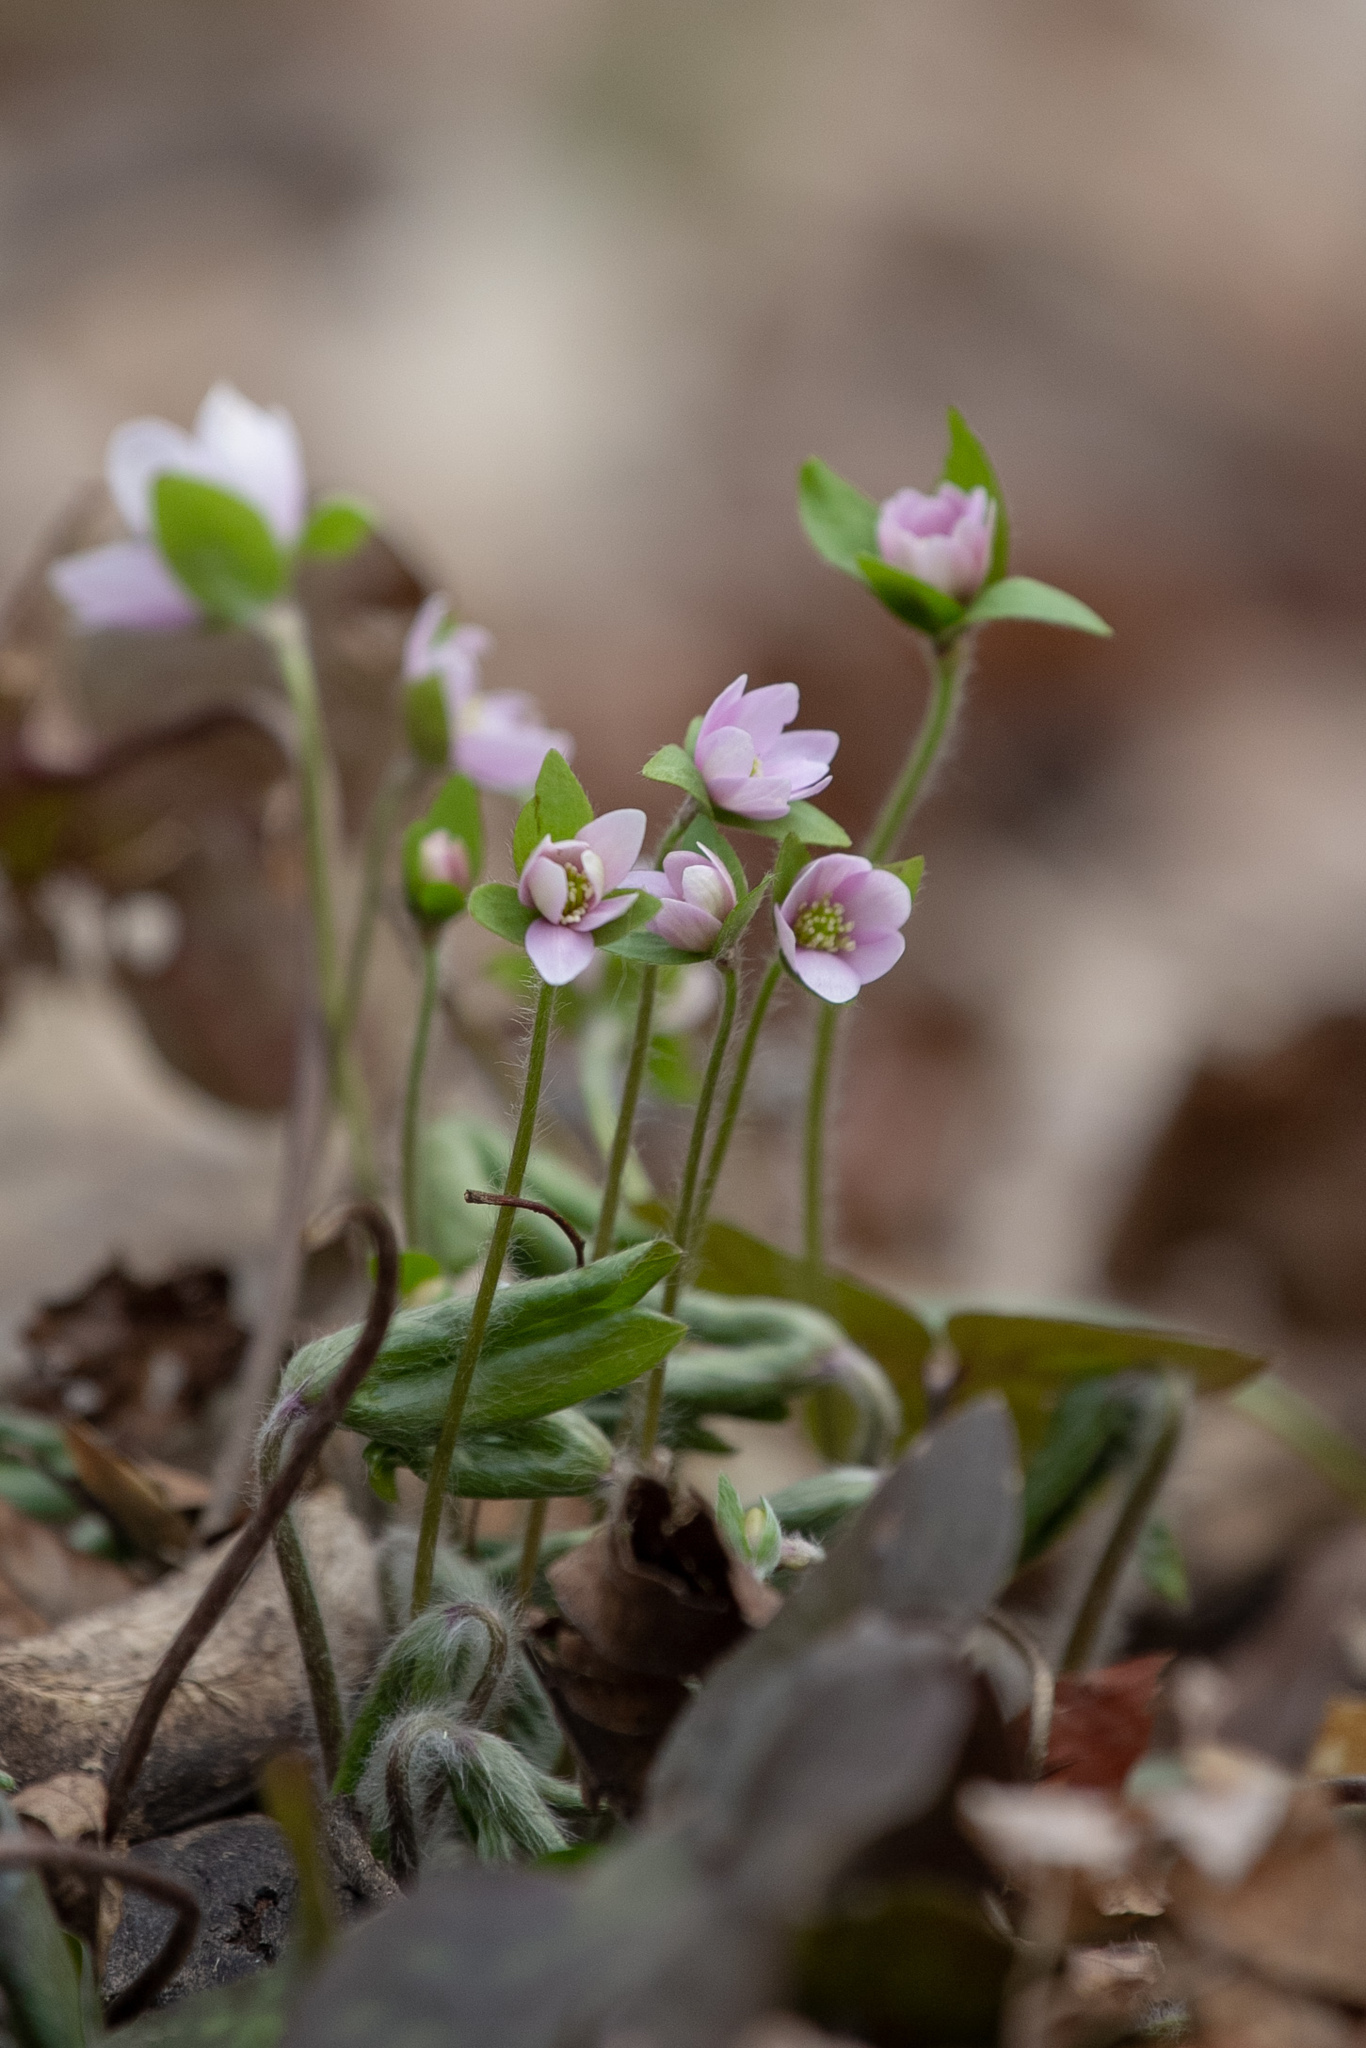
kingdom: Plantae
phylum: Tracheophyta
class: Magnoliopsida
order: Ranunculales
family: Ranunculaceae
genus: Hepatica
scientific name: Hepatica acutiloba
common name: Sharp-lobed hepatica
